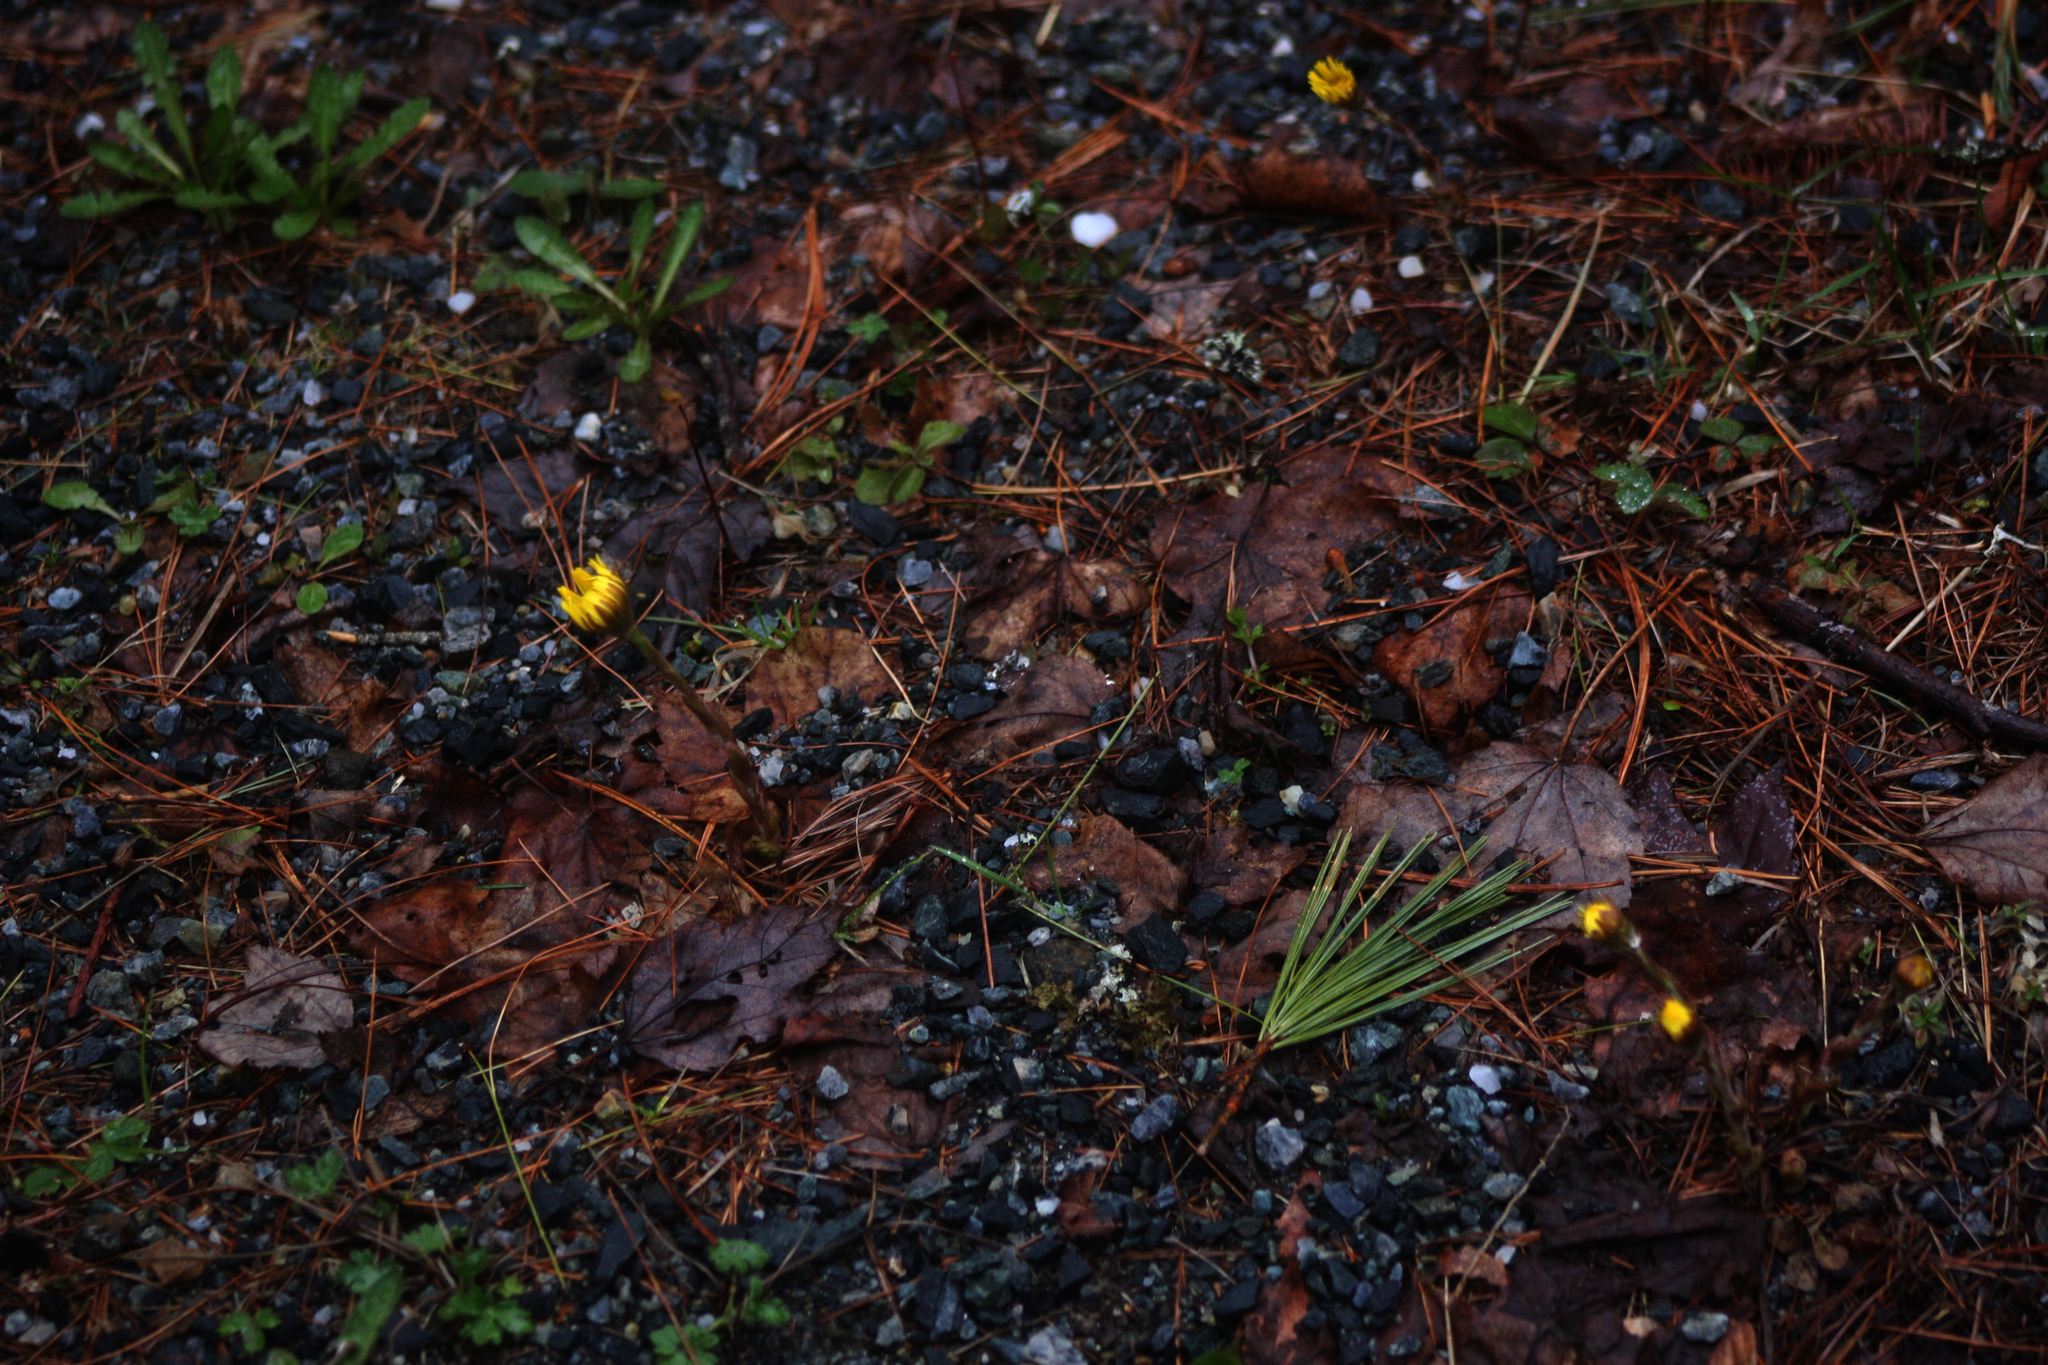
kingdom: Plantae
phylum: Tracheophyta
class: Magnoliopsida
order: Asterales
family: Asteraceae
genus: Tussilago
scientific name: Tussilago farfara
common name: Coltsfoot
